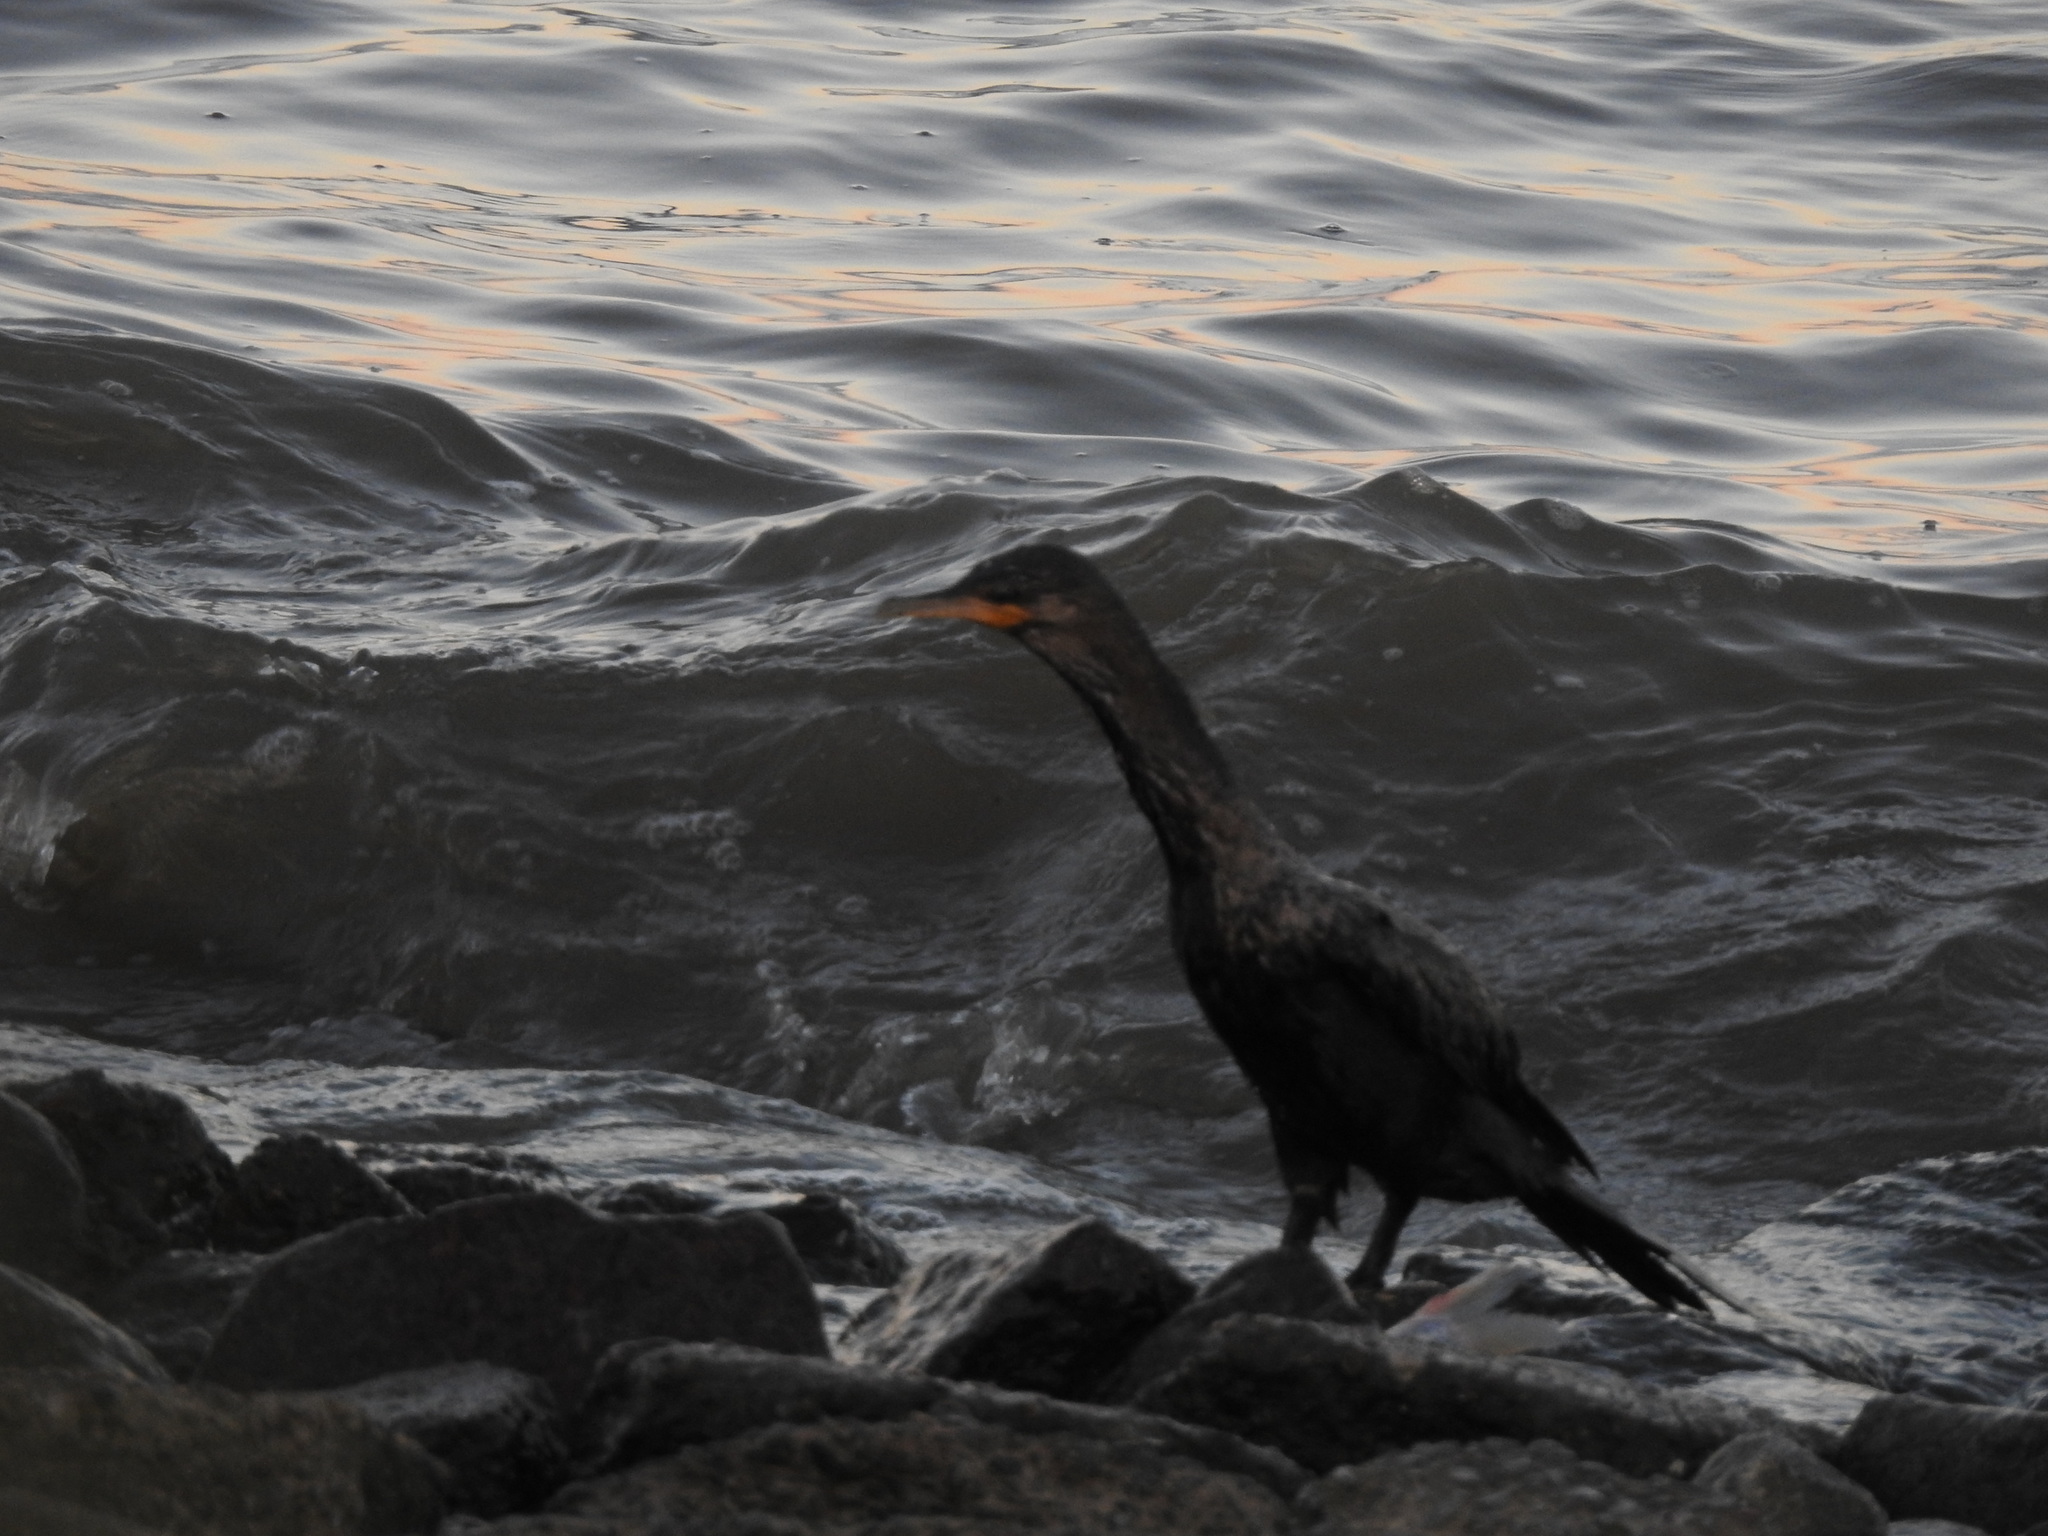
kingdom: Animalia
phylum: Chordata
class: Aves
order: Suliformes
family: Phalacrocoracidae
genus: Phalacrocorax
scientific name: Phalacrocorax brasilianus
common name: Neotropic cormorant
